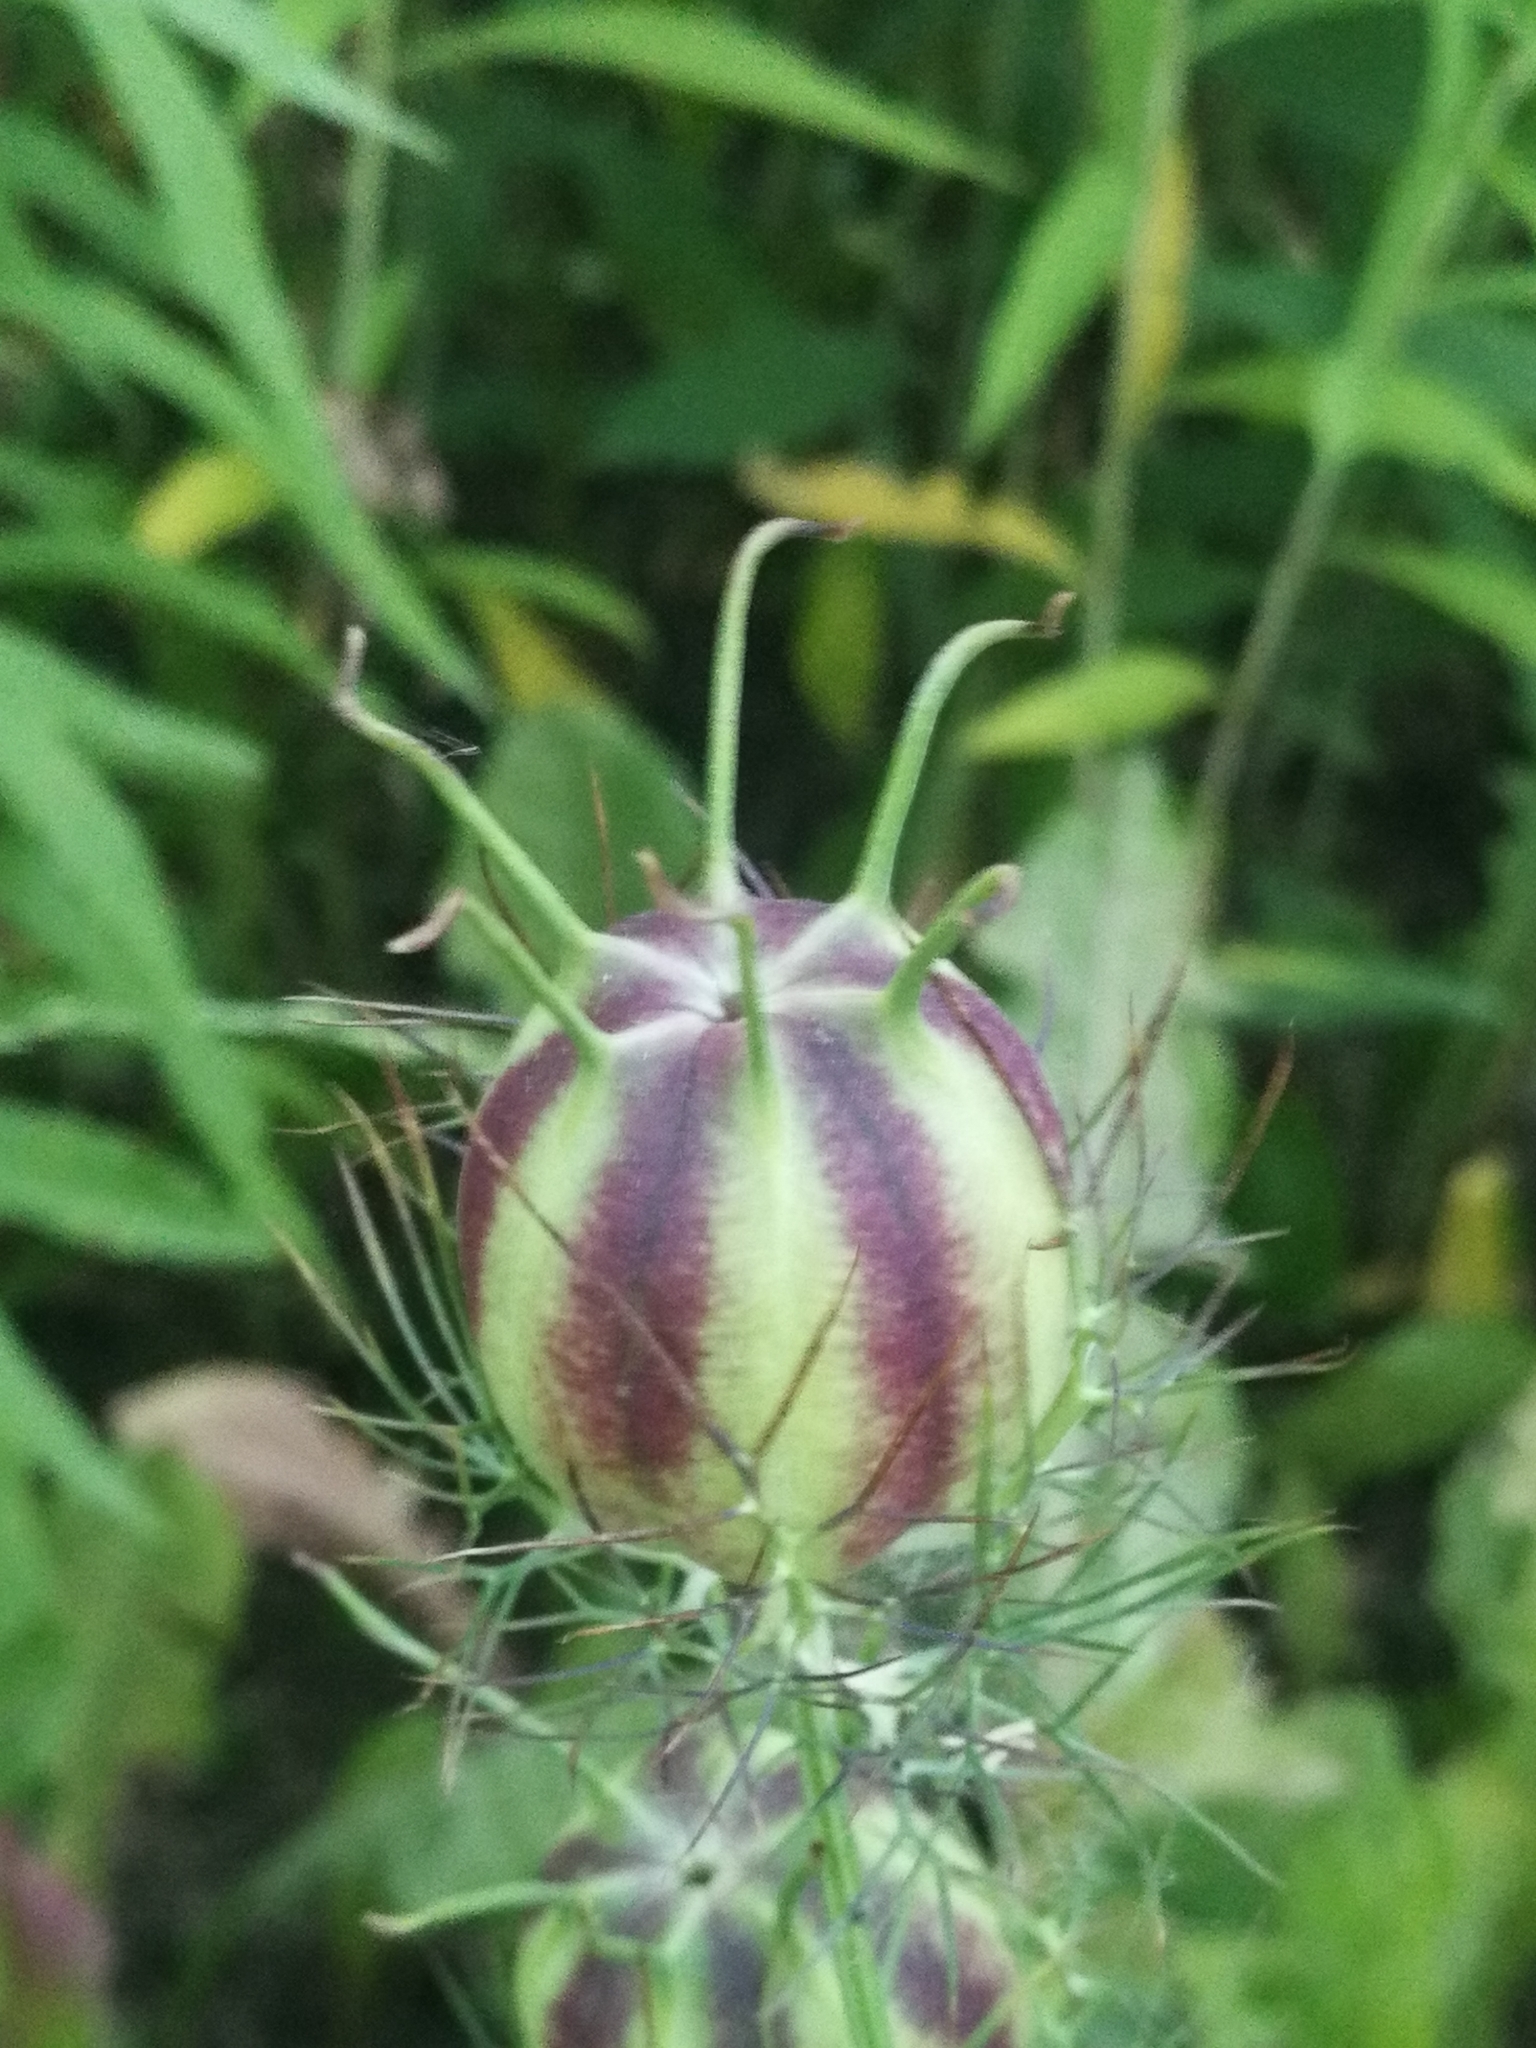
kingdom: Plantae
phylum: Tracheophyta
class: Magnoliopsida
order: Ranunculales
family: Ranunculaceae
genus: Nigella
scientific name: Nigella damascena
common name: Love-in-a-mist
